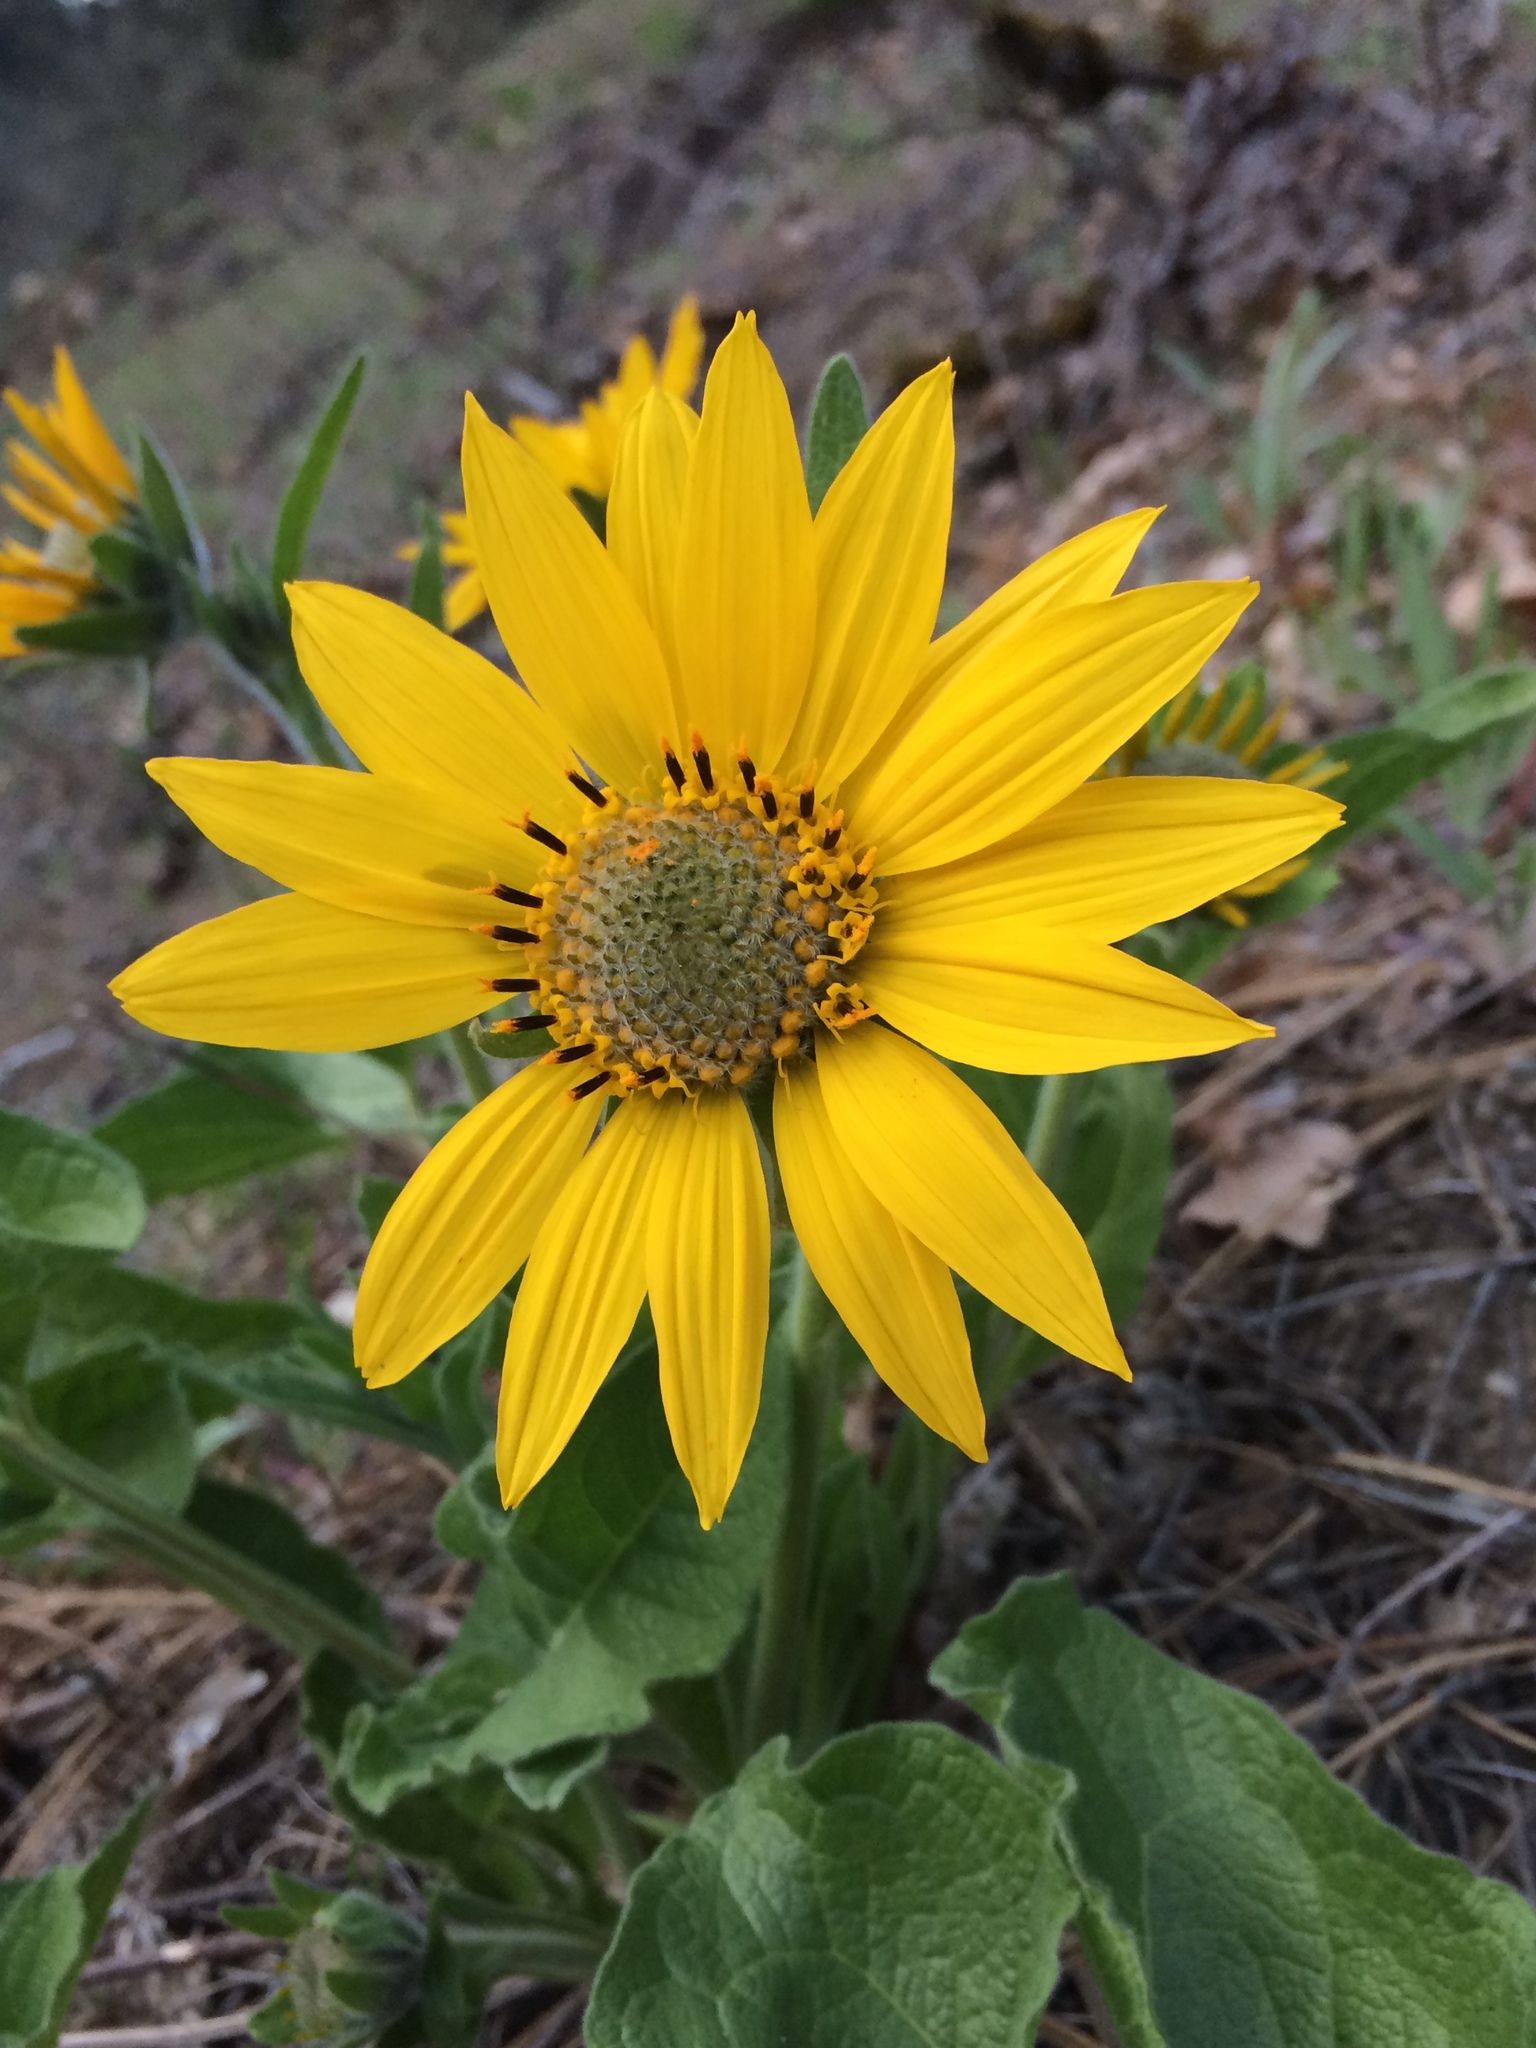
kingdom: Plantae
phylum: Tracheophyta
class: Magnoliopsida
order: Asterales
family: Asteraceae
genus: Balsamorhiza
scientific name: Balsamorhiza careyana
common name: Carey's balsamroot
